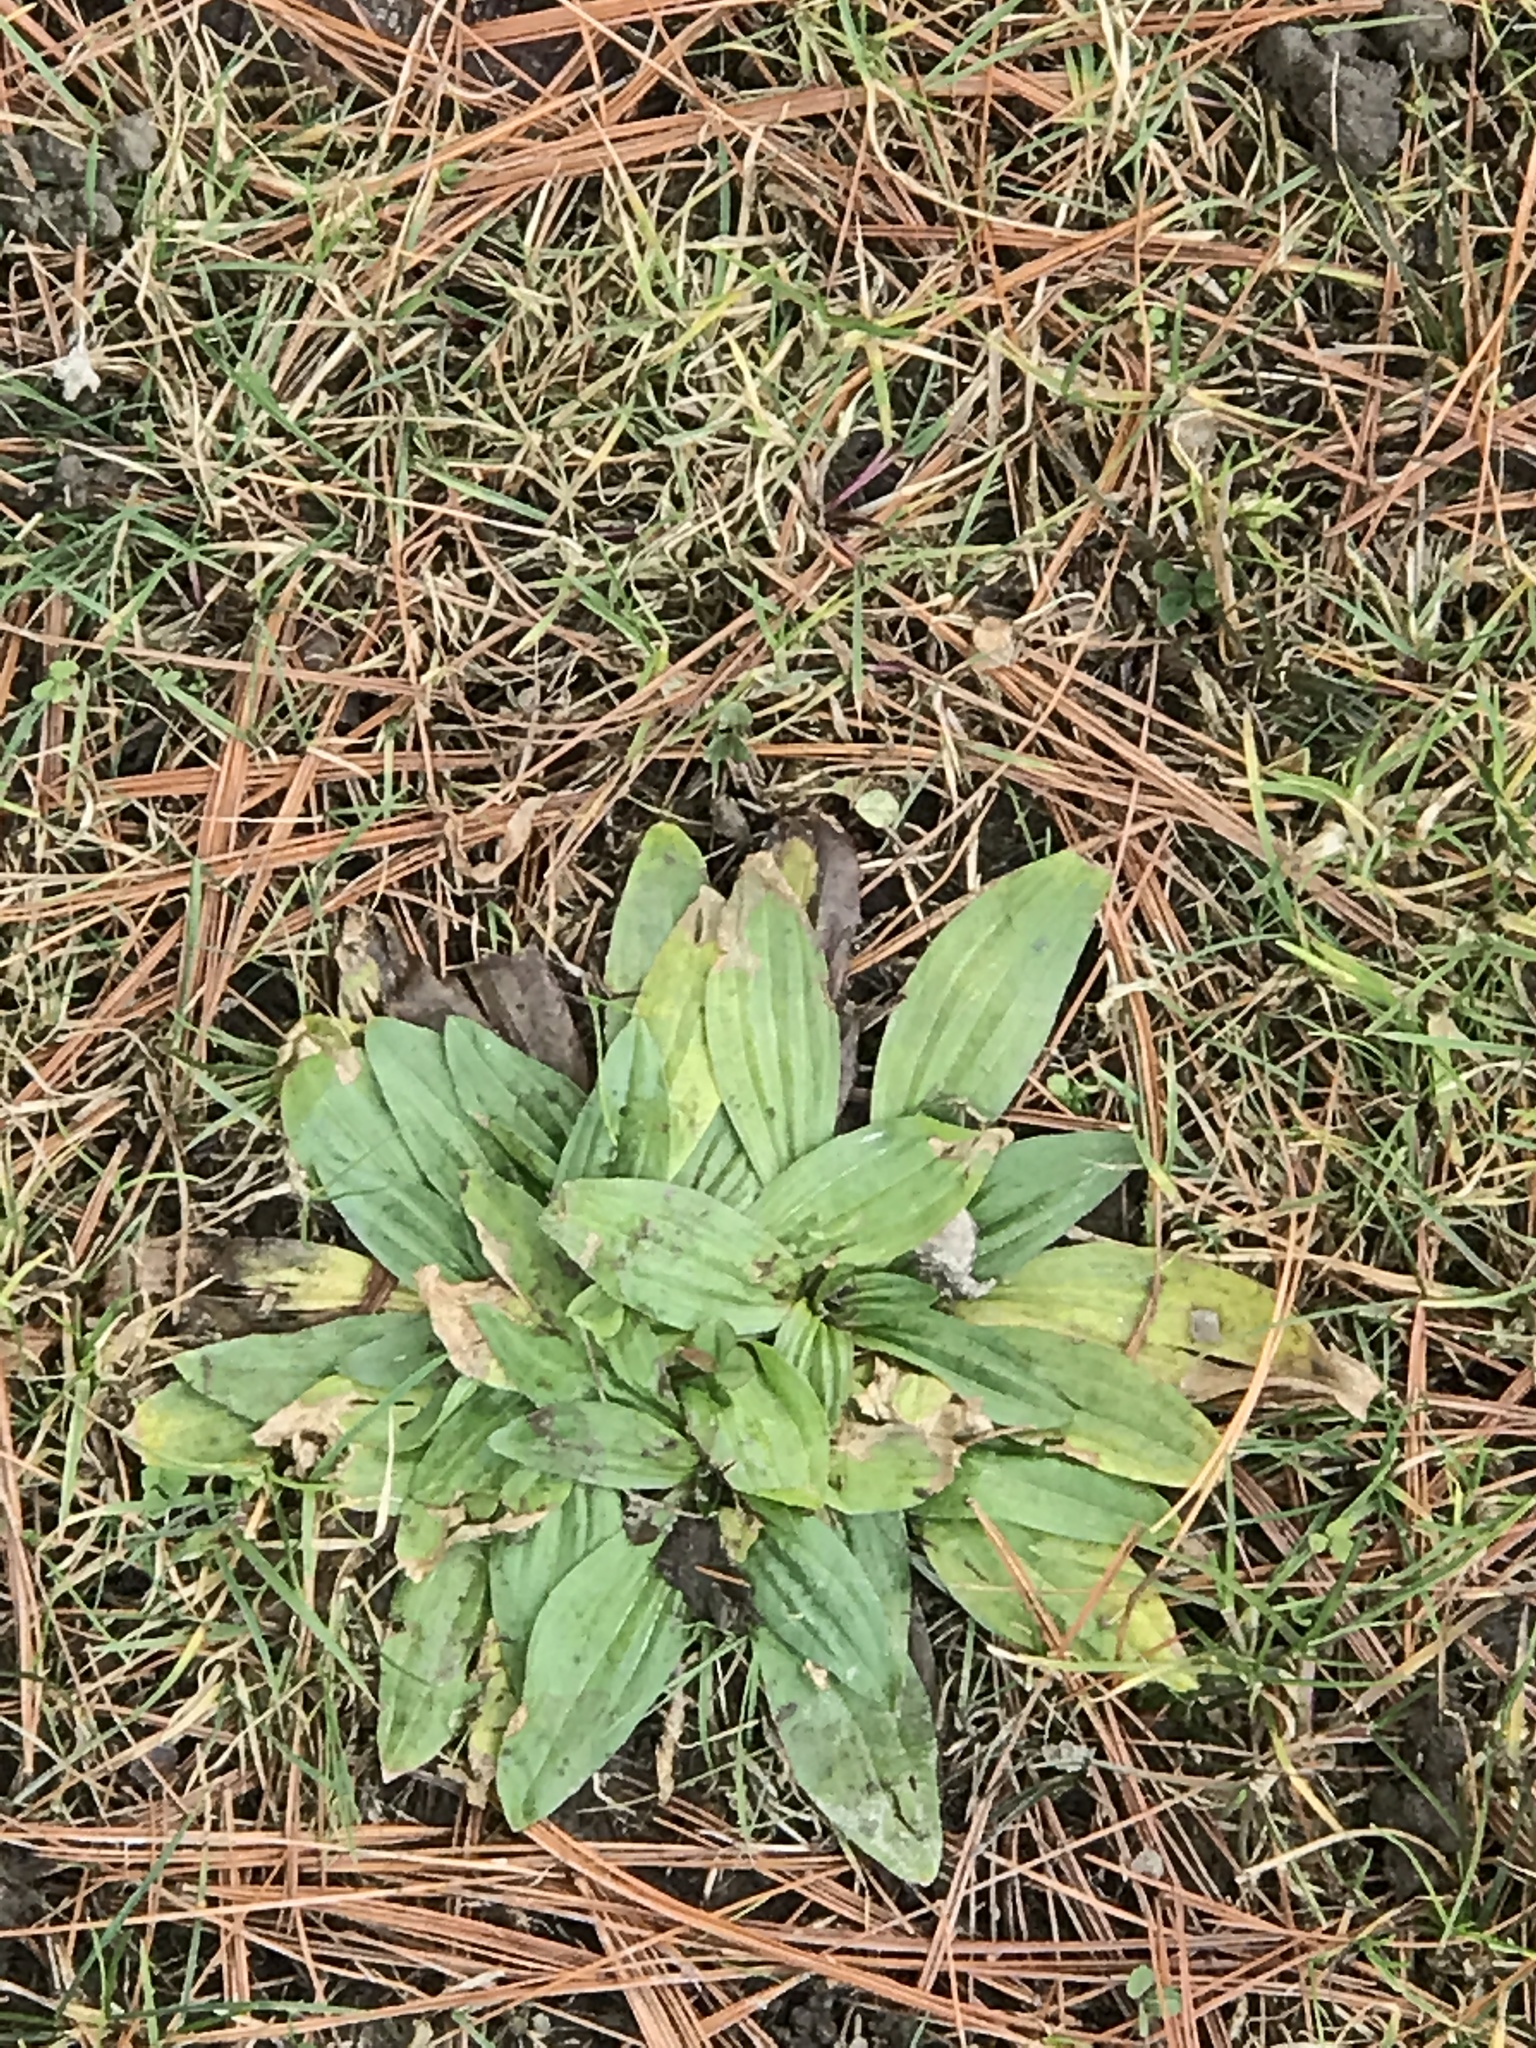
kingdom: Plantae
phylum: Tracheophyta
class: Magnoliopsida
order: Lamiales
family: Plantaginaceae
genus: Plantago
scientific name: Plantago lanceolata
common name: Ribwort plantain
